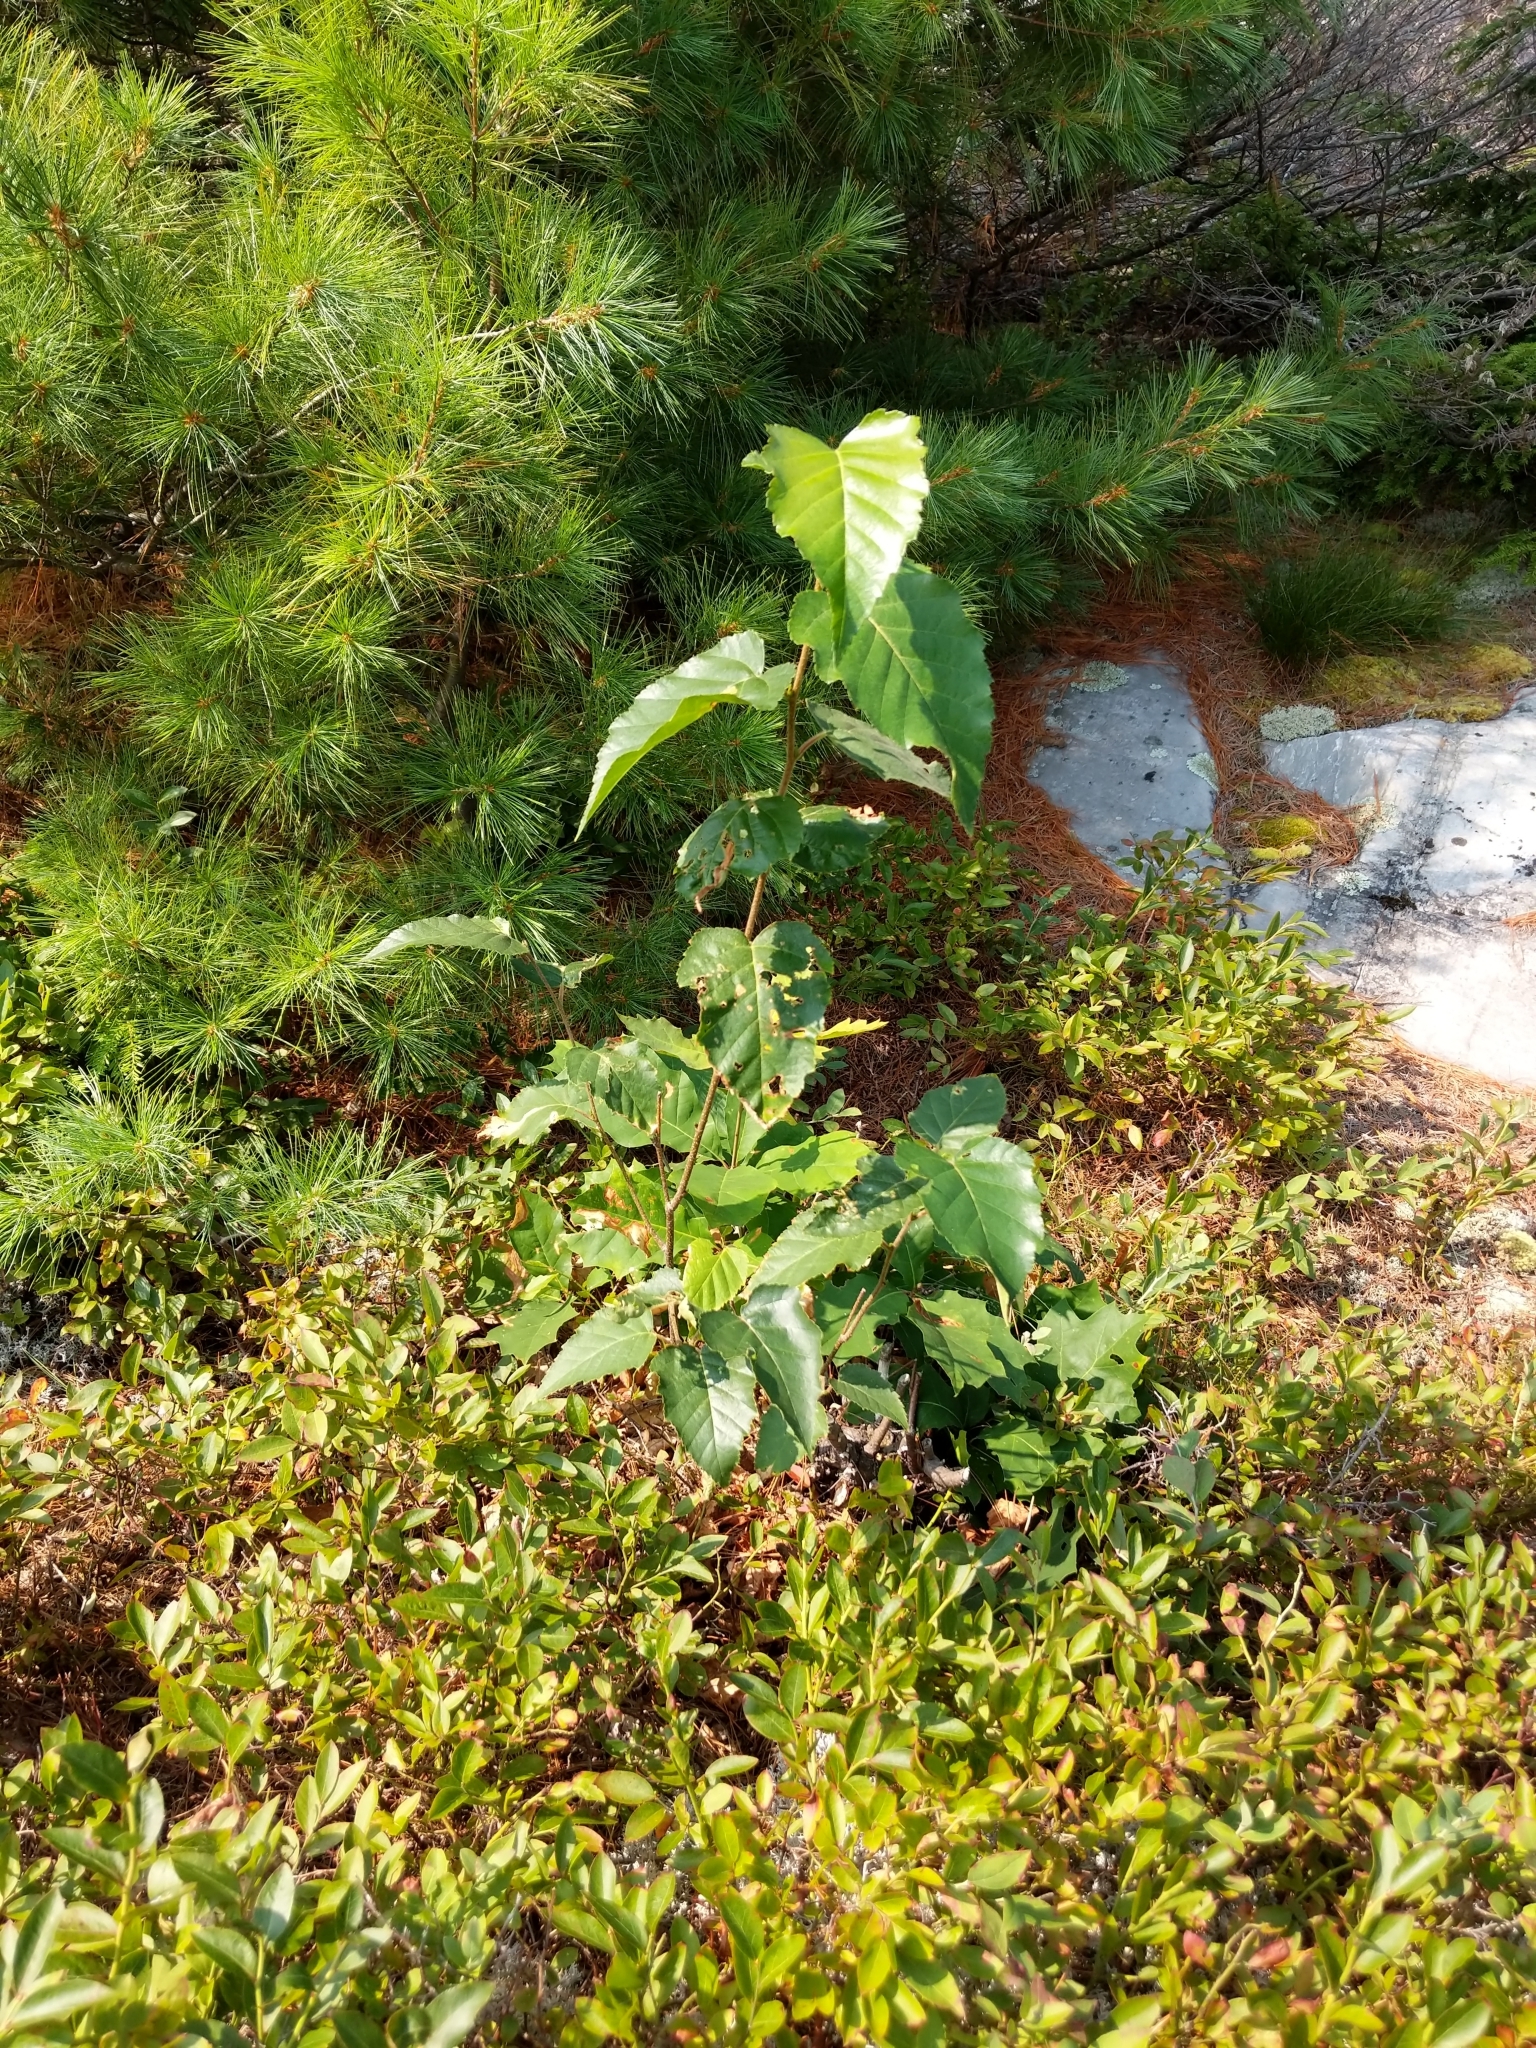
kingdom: Plantae
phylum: Tracheophyta
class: Magnoliopsida
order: Fagales
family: Betulaceae
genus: Betula
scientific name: Betula papyrifera
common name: Paper birch
